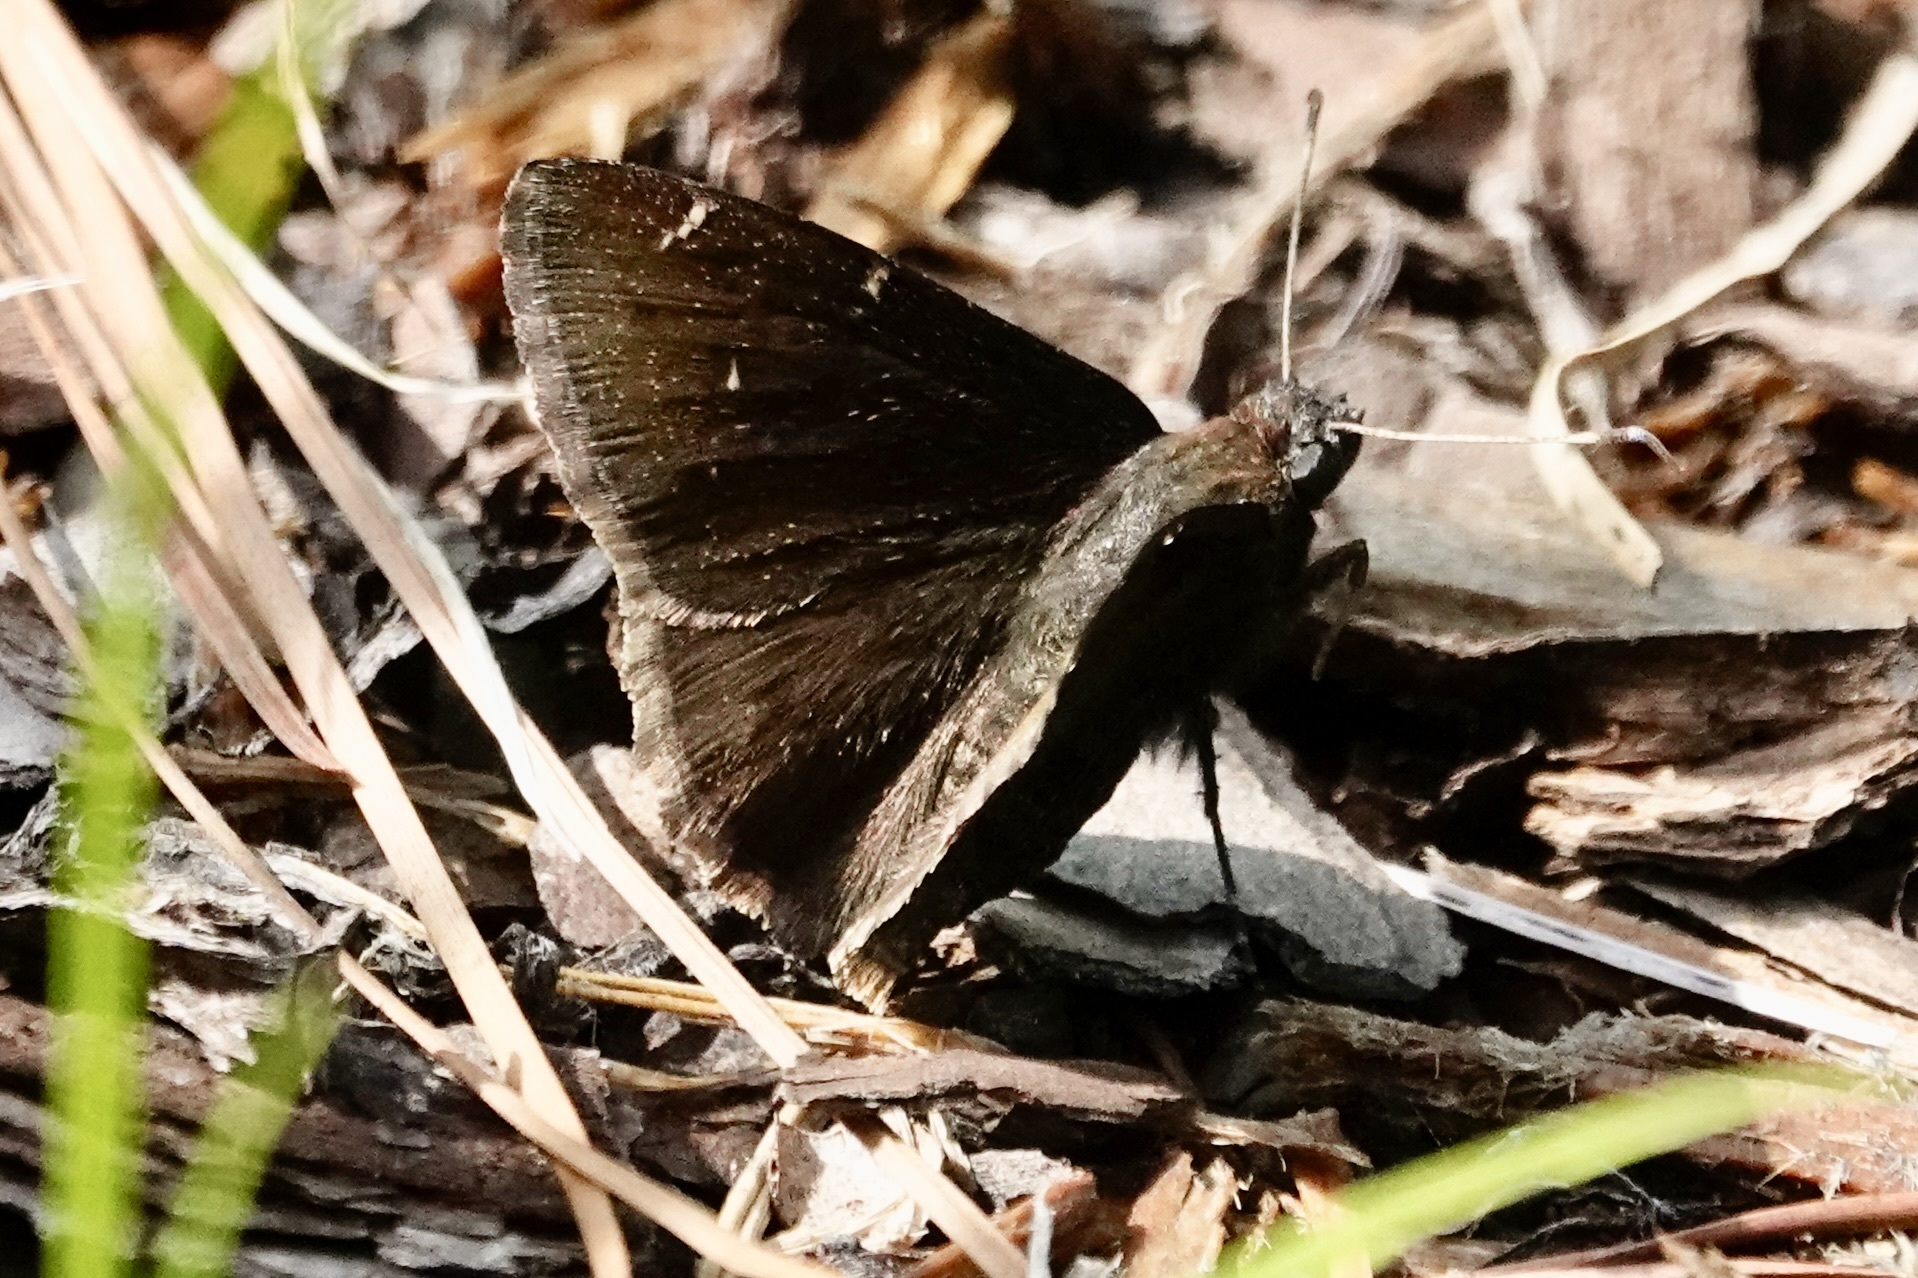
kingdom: Animalia
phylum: Arthropoda
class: Insecta
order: Lepidoptera
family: Hesperiidae
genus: Thorybes
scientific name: Thorybes pylades
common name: Northern cloudywing
